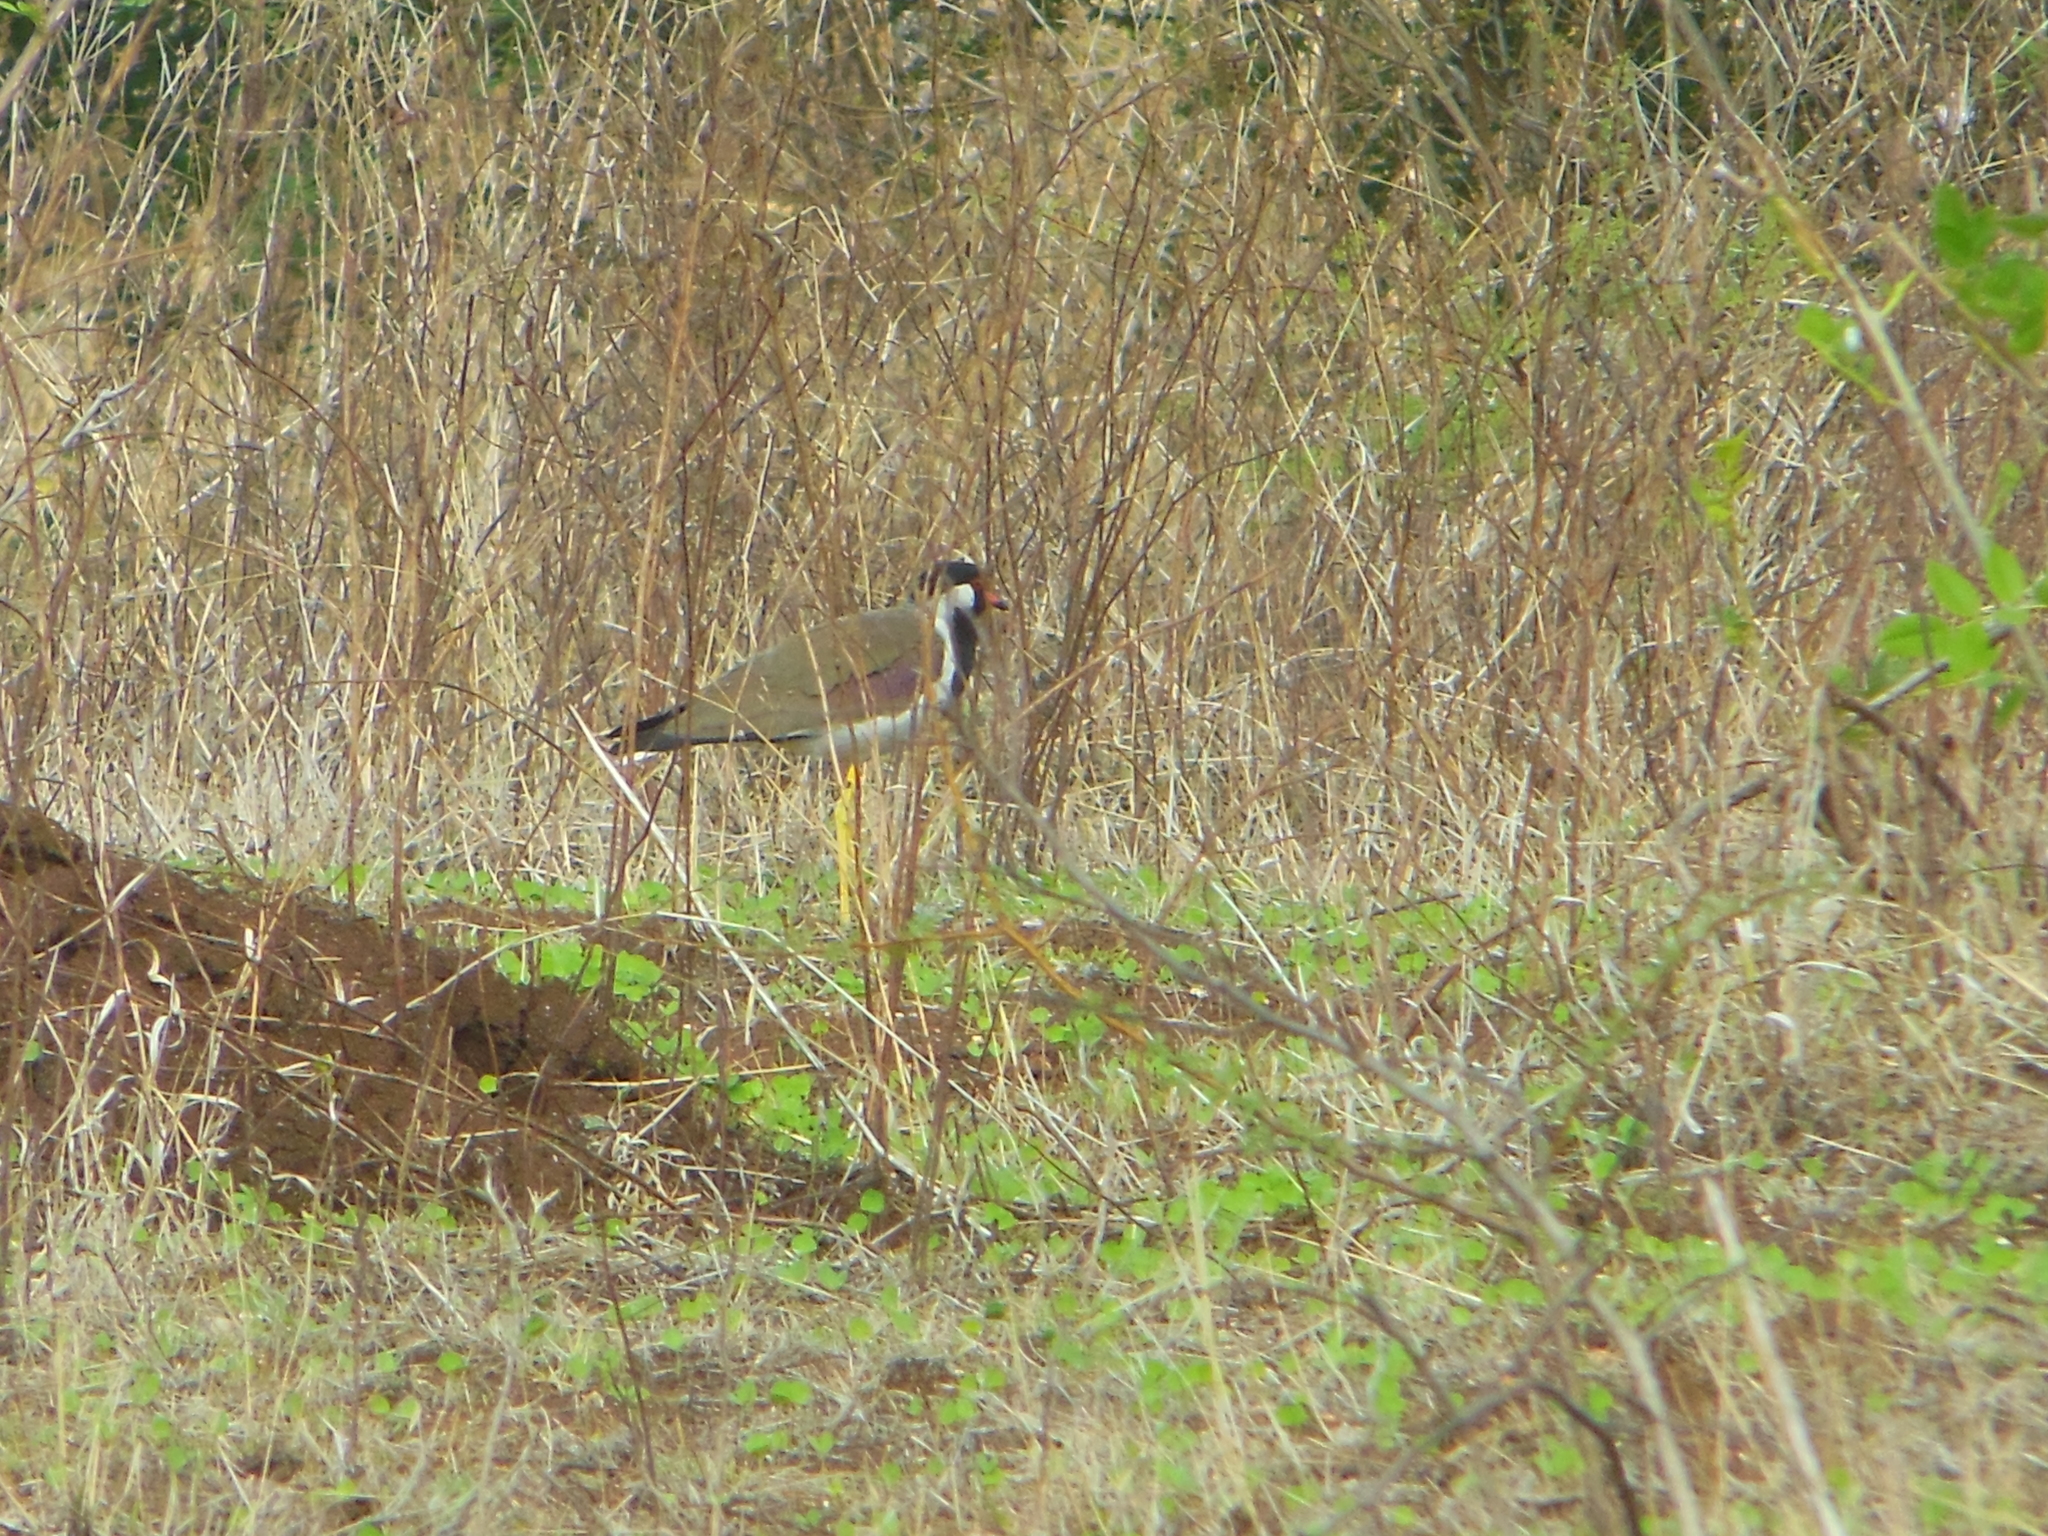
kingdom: Animalia
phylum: Chordata
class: Aves
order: Charadriiformes
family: Charadriidae
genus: Vanellus
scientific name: Vanellus indicus
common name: Red-wattled lapwing
